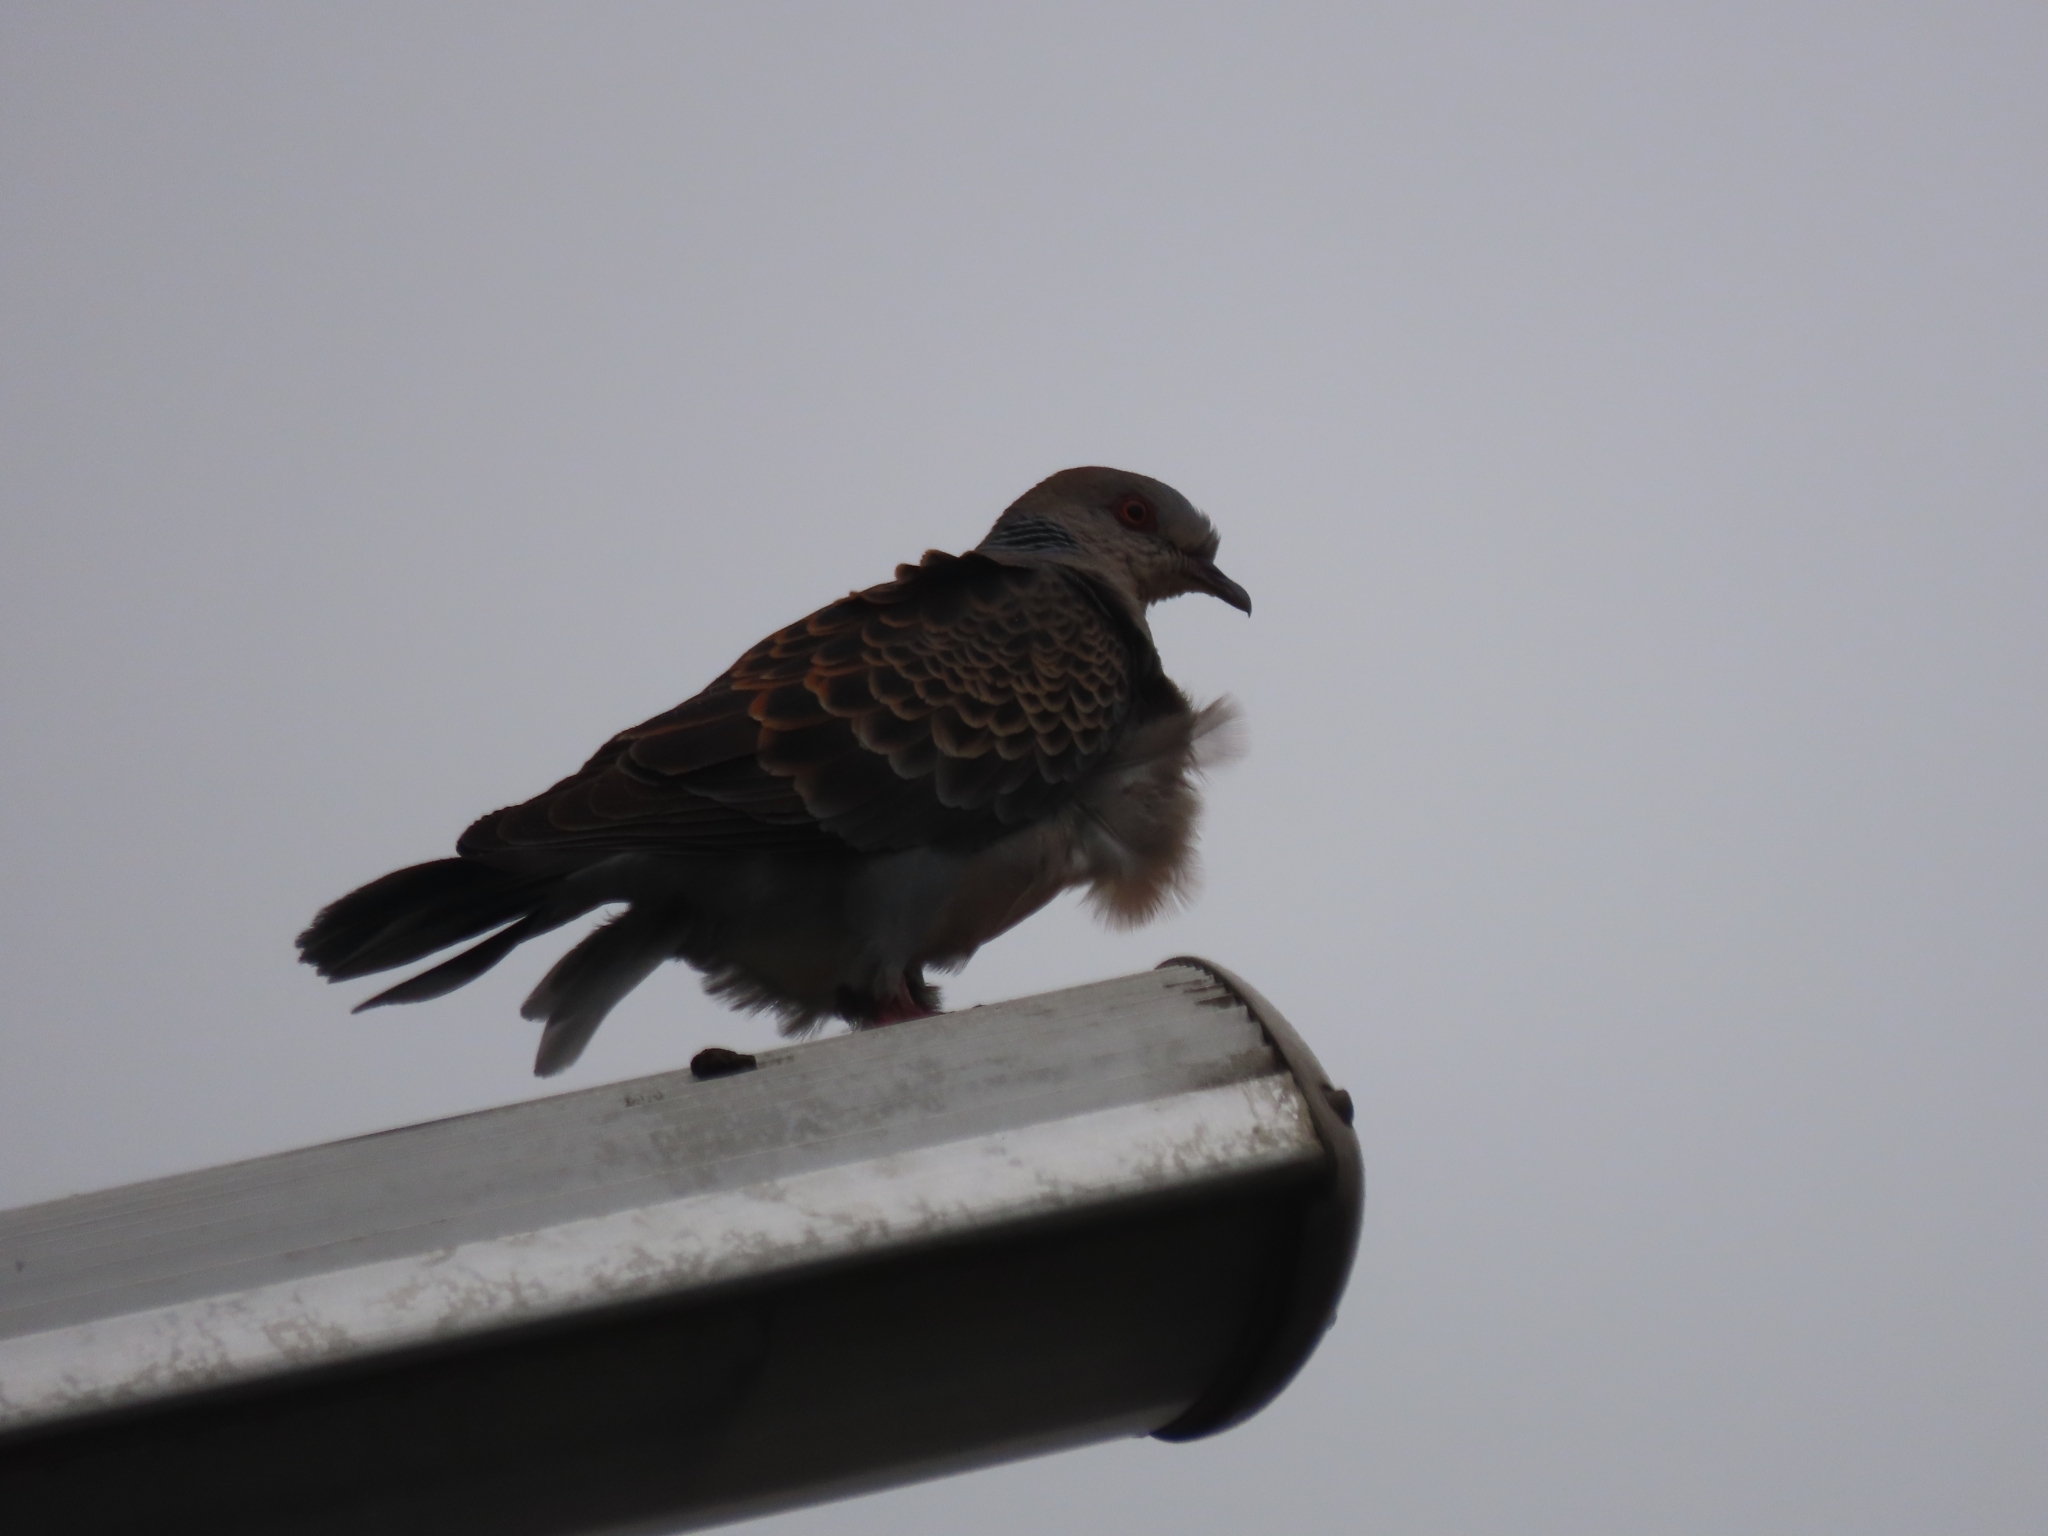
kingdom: Animalia
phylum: Chordata
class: Aves
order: Columbiformes
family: Columbidae
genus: Streptopelia
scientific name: Streptopelia orientalis
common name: Oriental turtle dove
